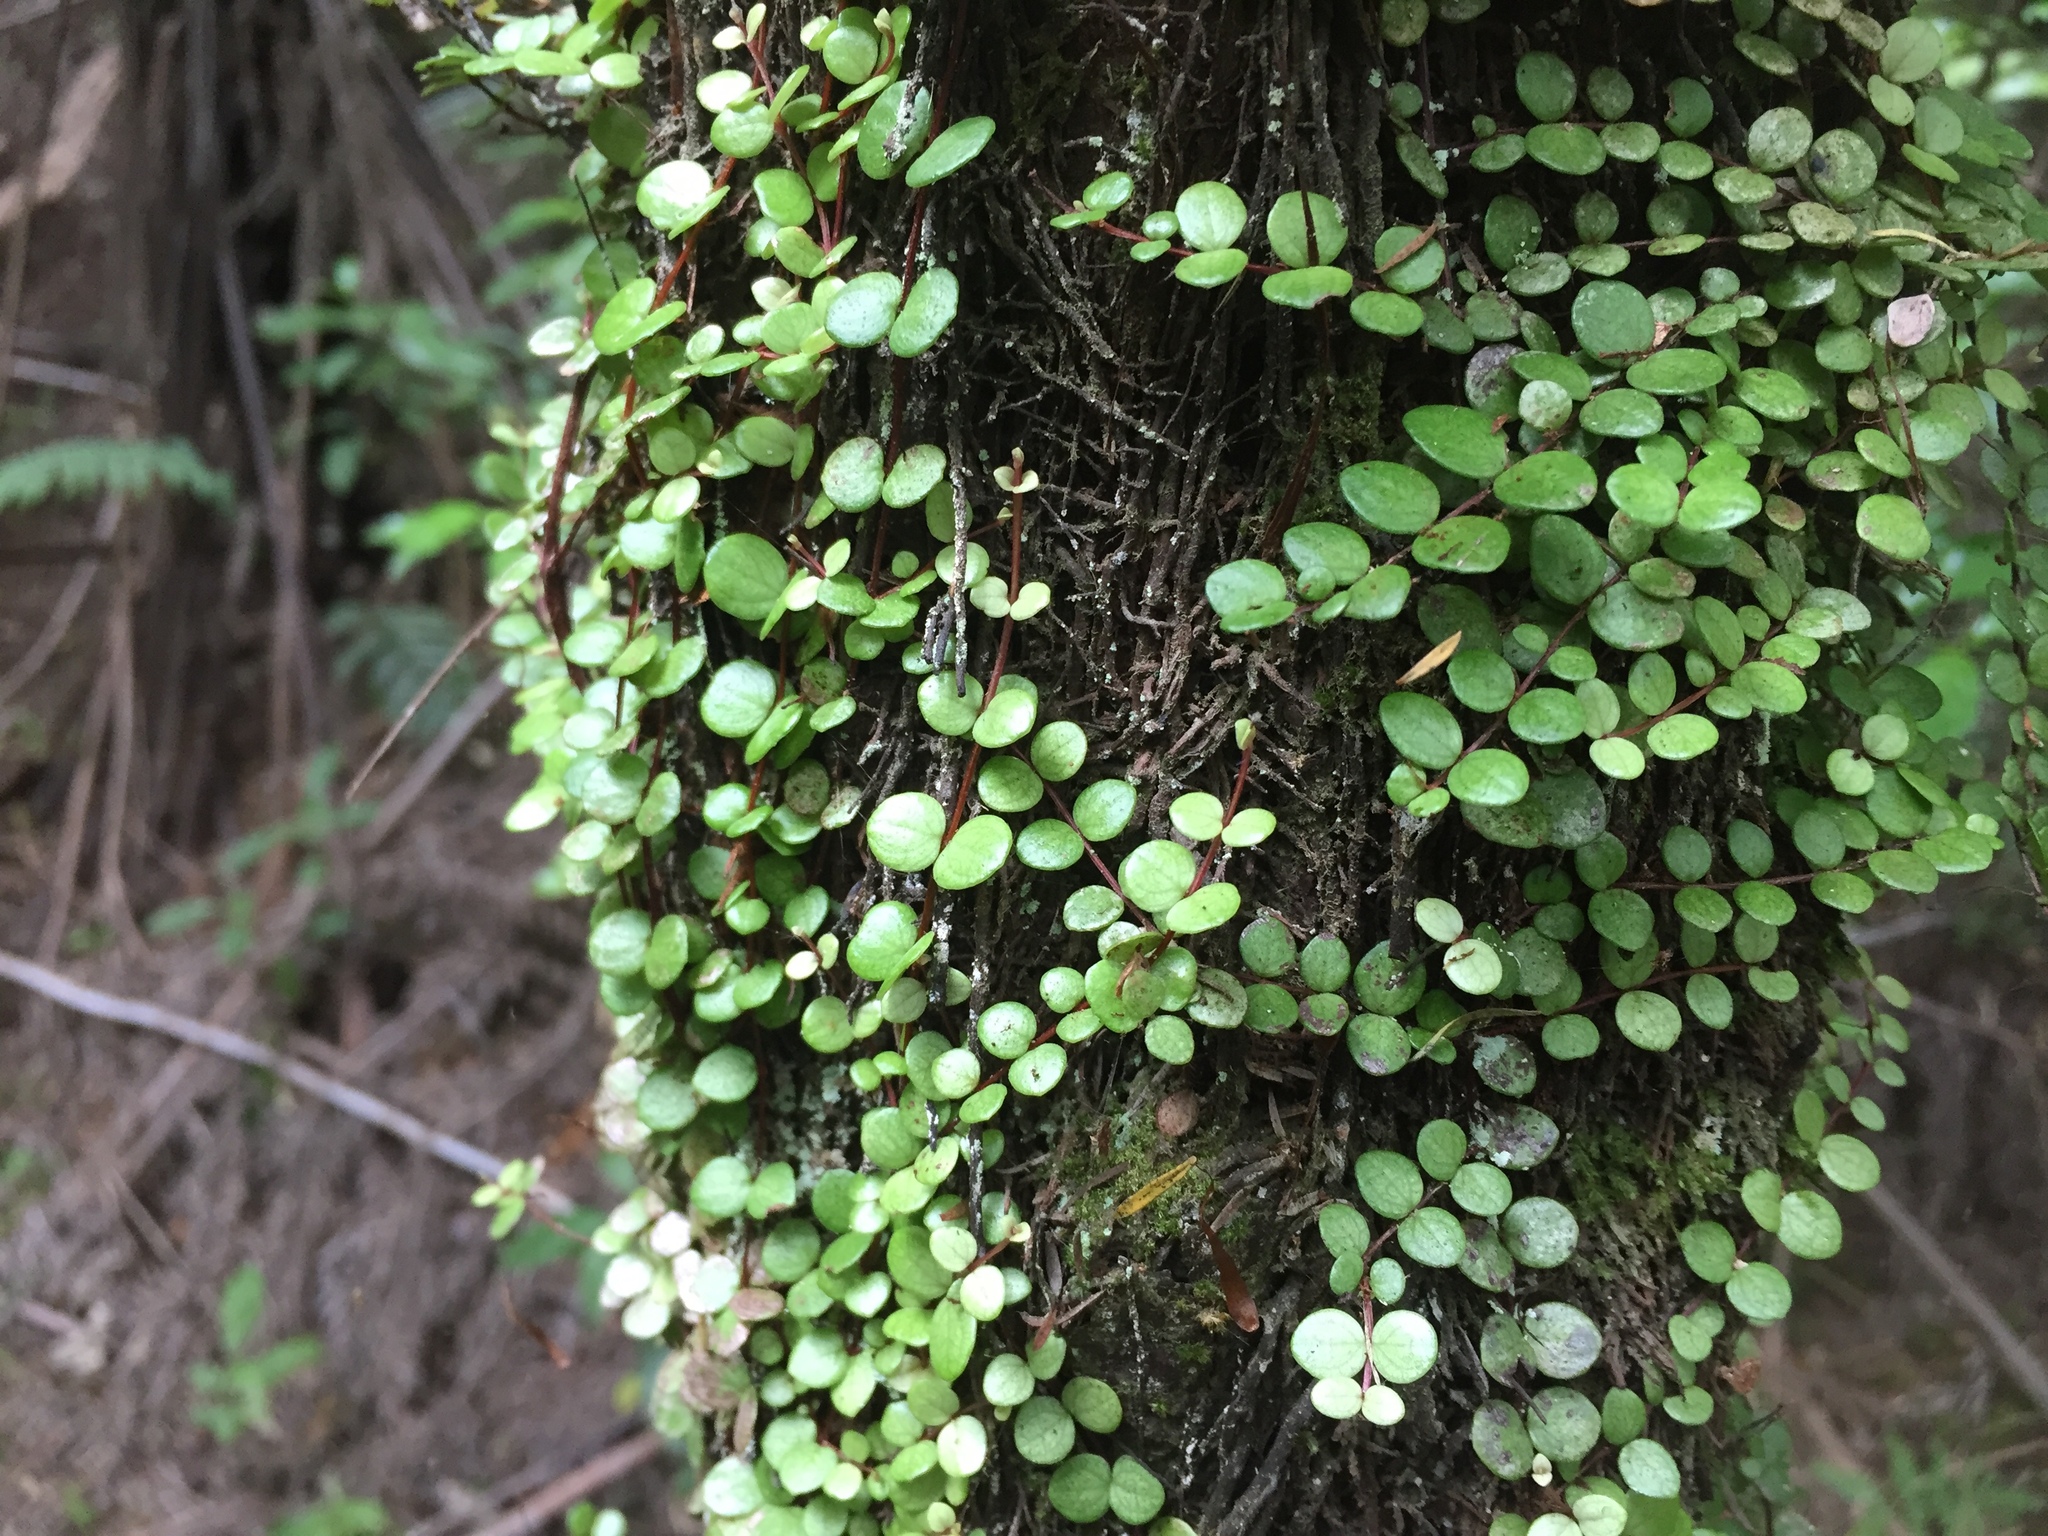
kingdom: Plantae
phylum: Tracheophyta
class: Magnoliopsida
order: Myrtales
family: Myrtaceae
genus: Metrosideros
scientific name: Metrosideros perforata
